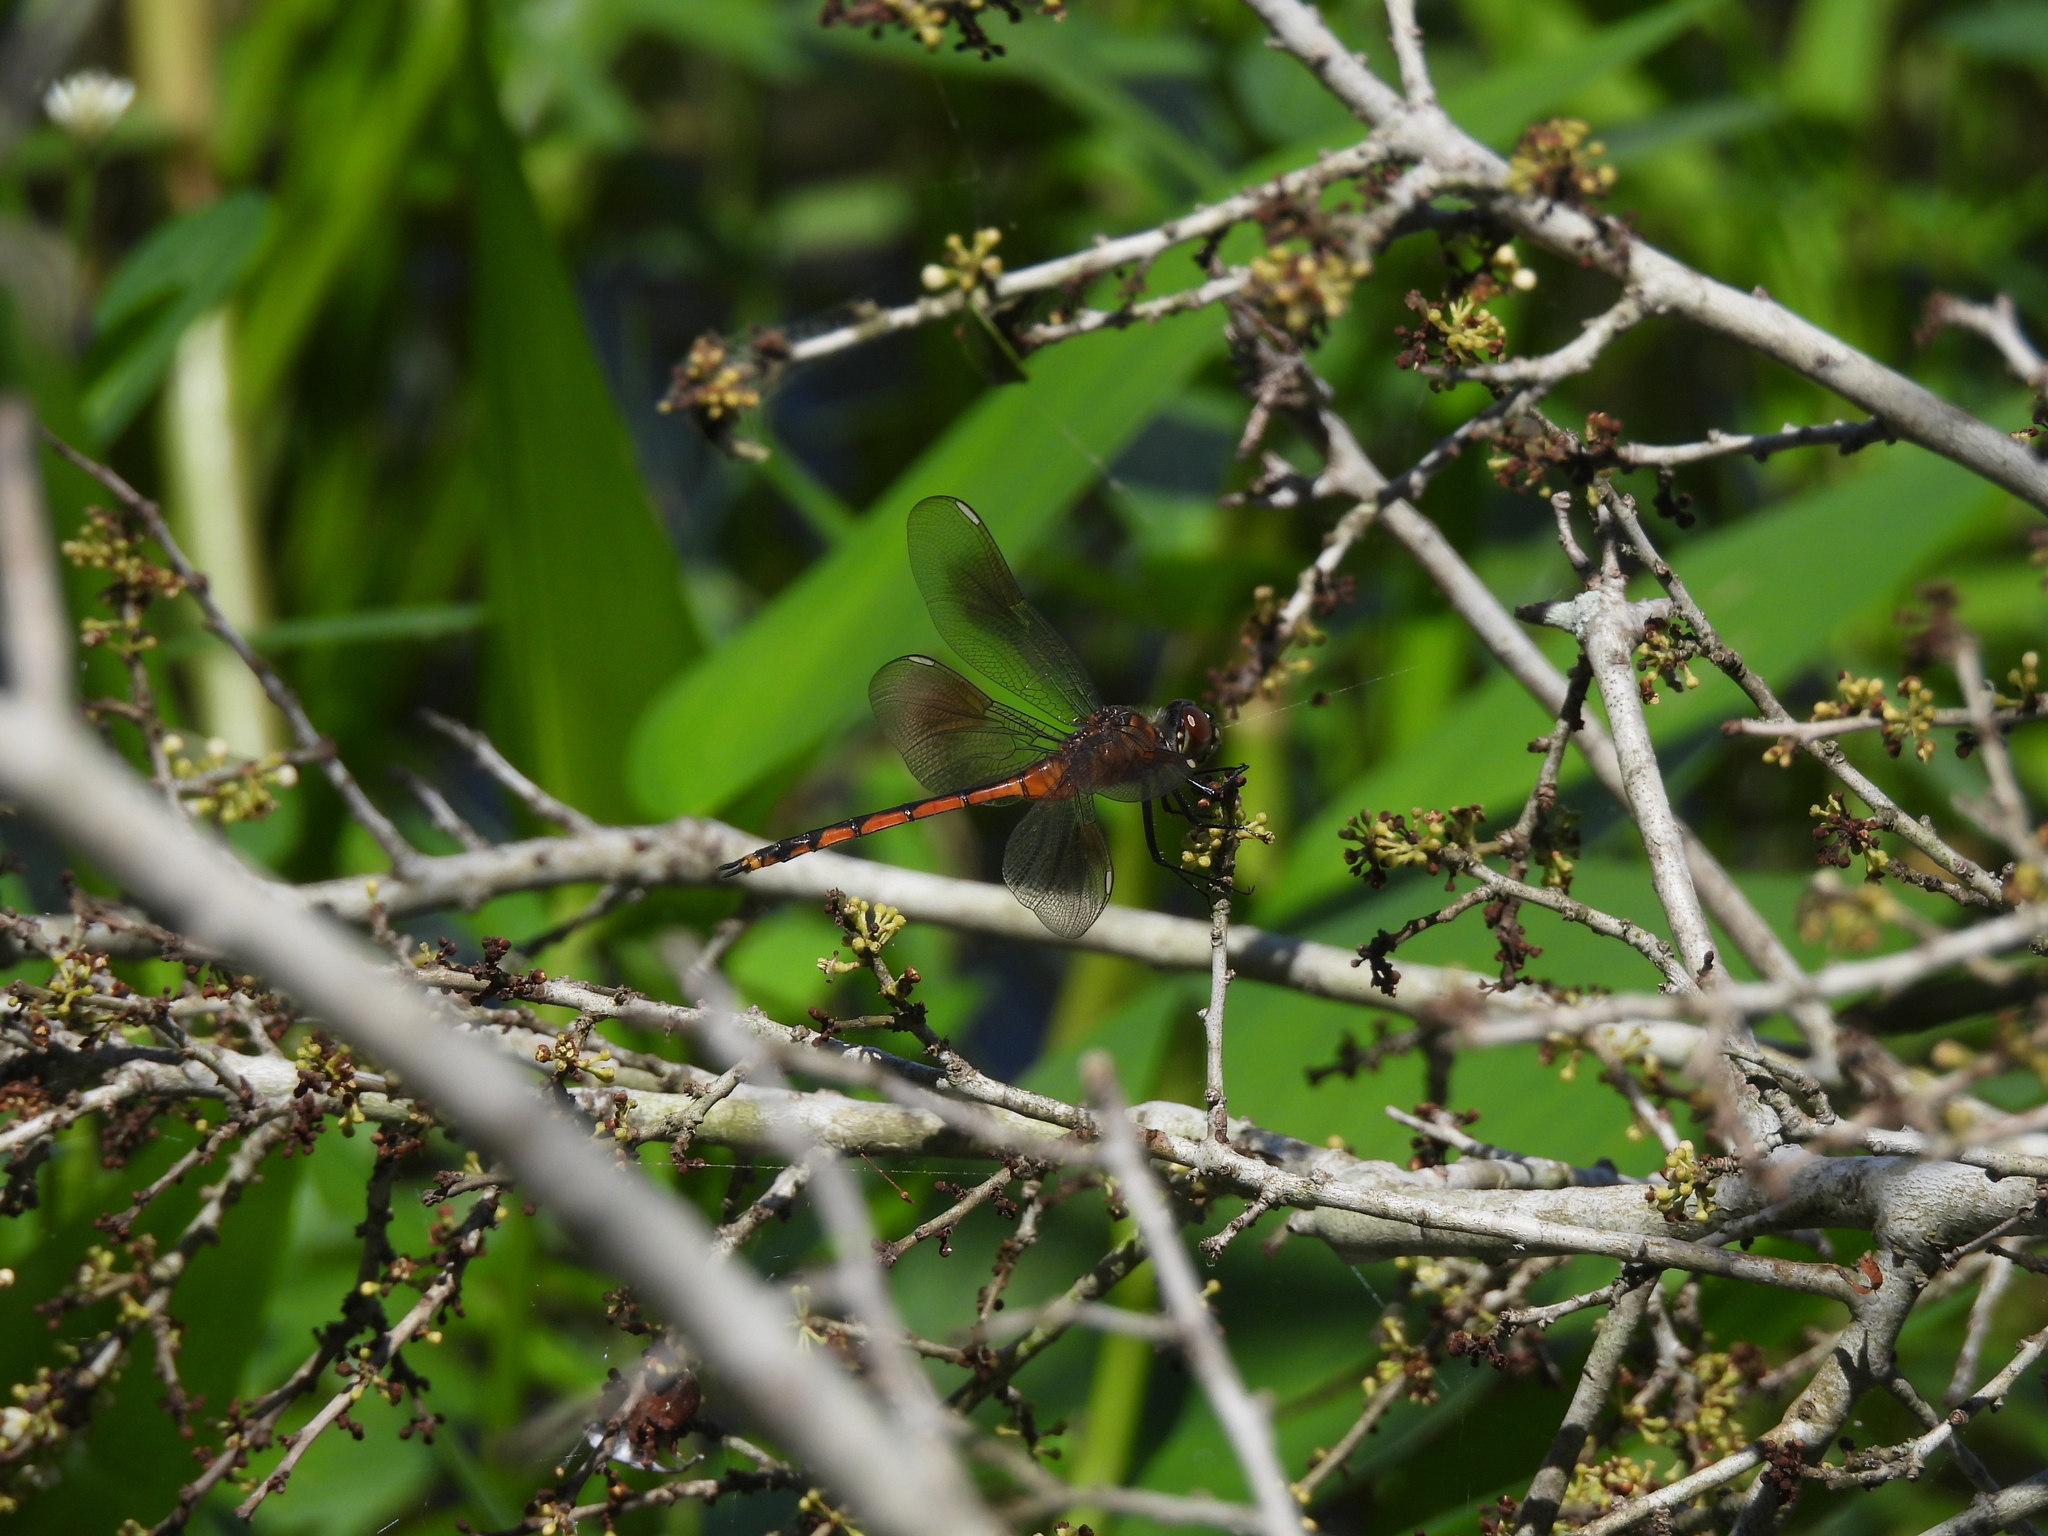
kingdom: Animalia
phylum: Arthropoda
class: Insecta
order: Odonata
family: Libellulidae
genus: Brachymesia
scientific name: Brachymesia gravida
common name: Four-spotted pennant
